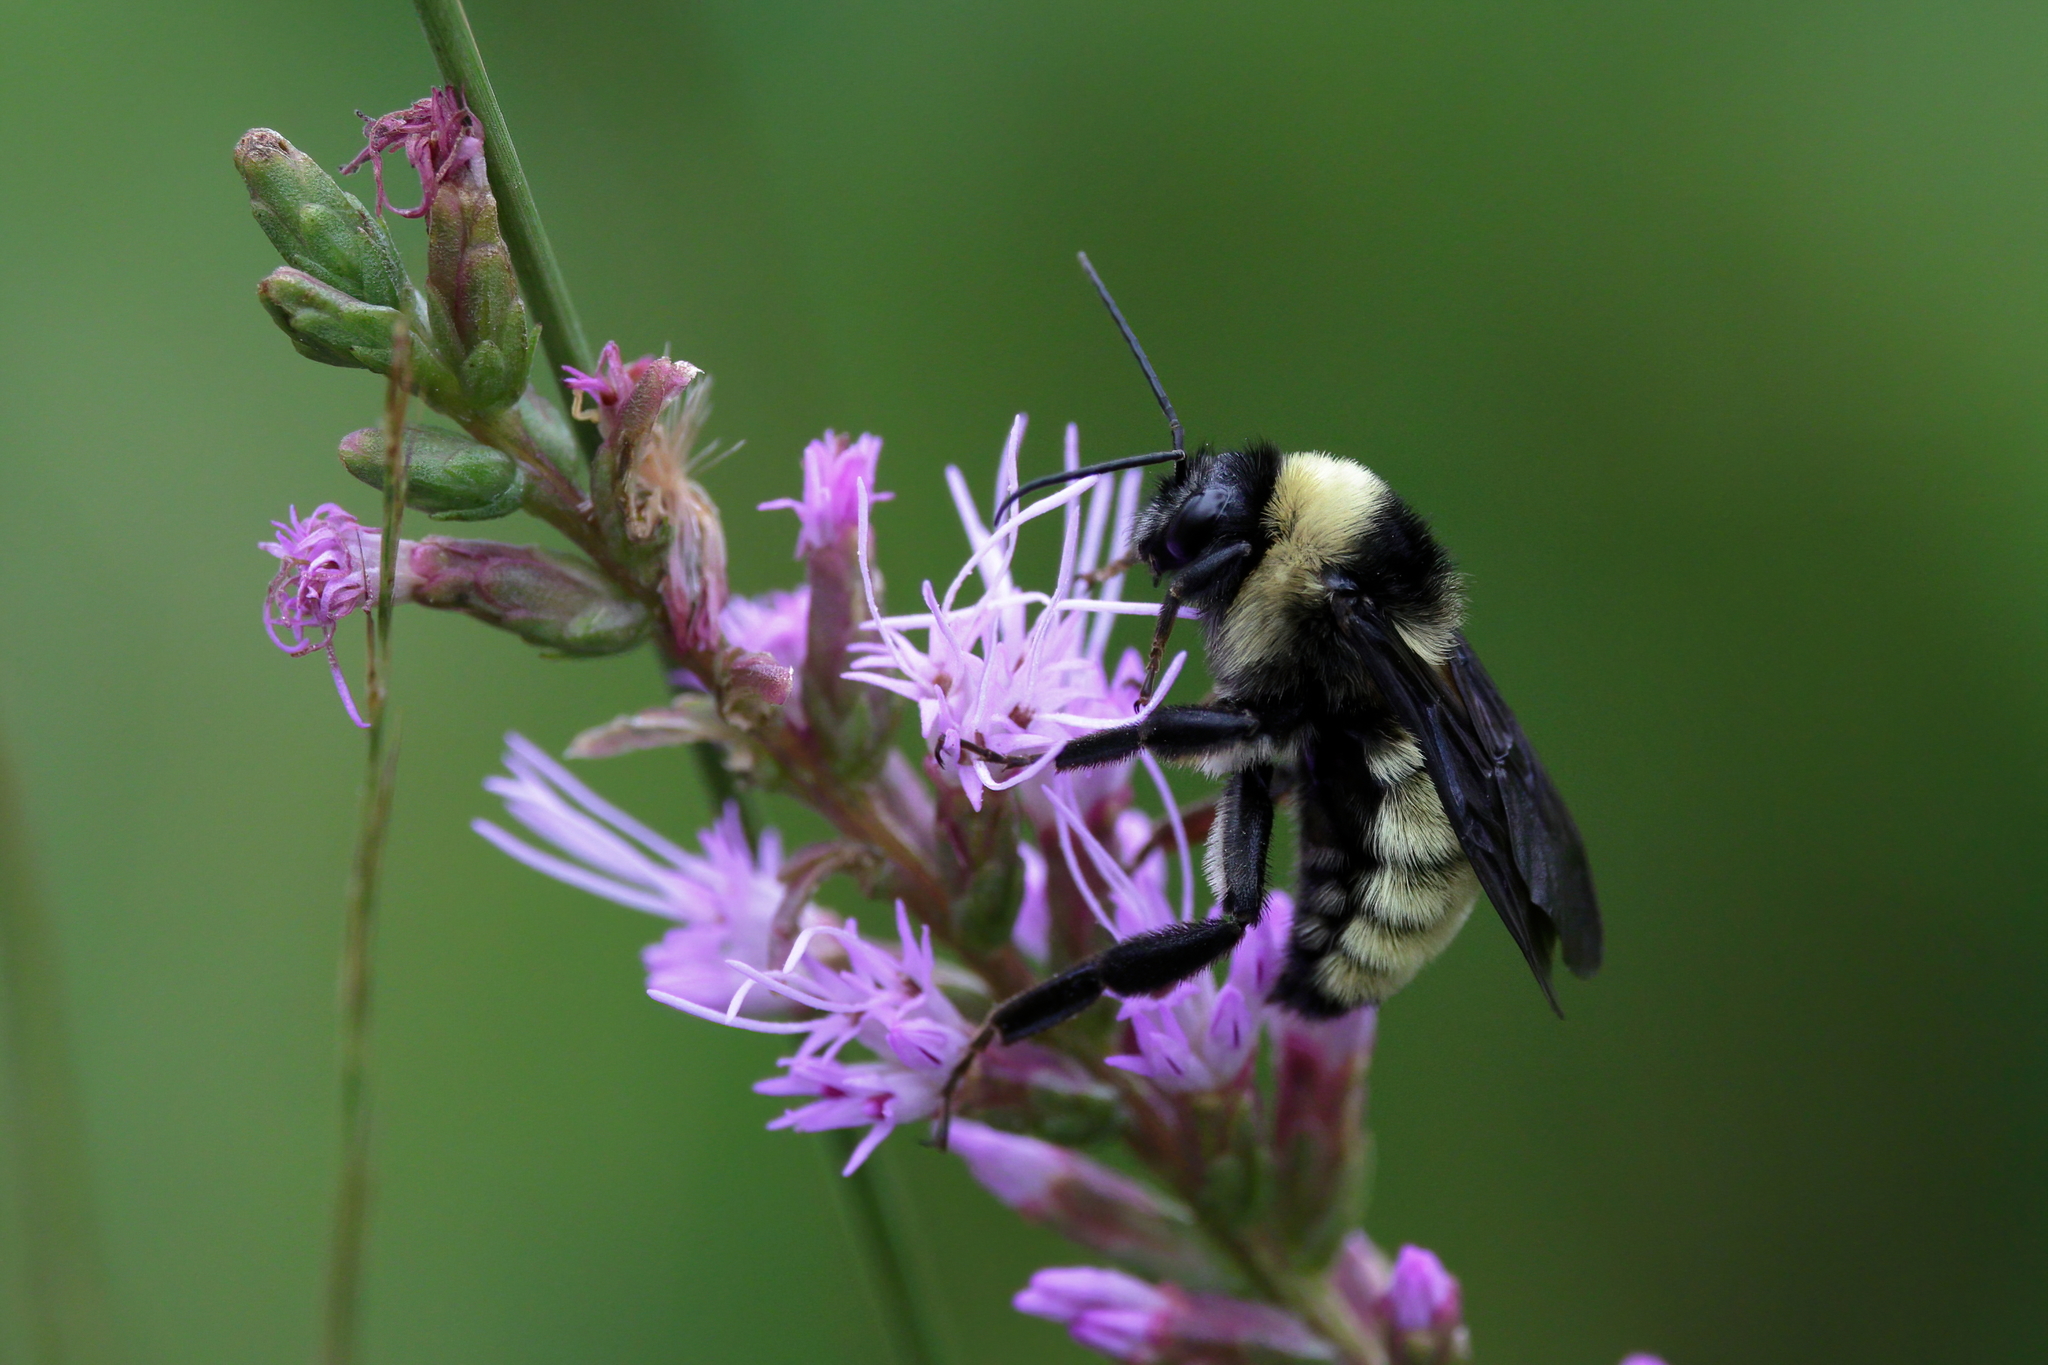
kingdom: Animalia
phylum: Arthropoda
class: Insecta
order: Hymenoptera
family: Apidae
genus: Bombus
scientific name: Bombus pensylvanicus
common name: Bumble bee
